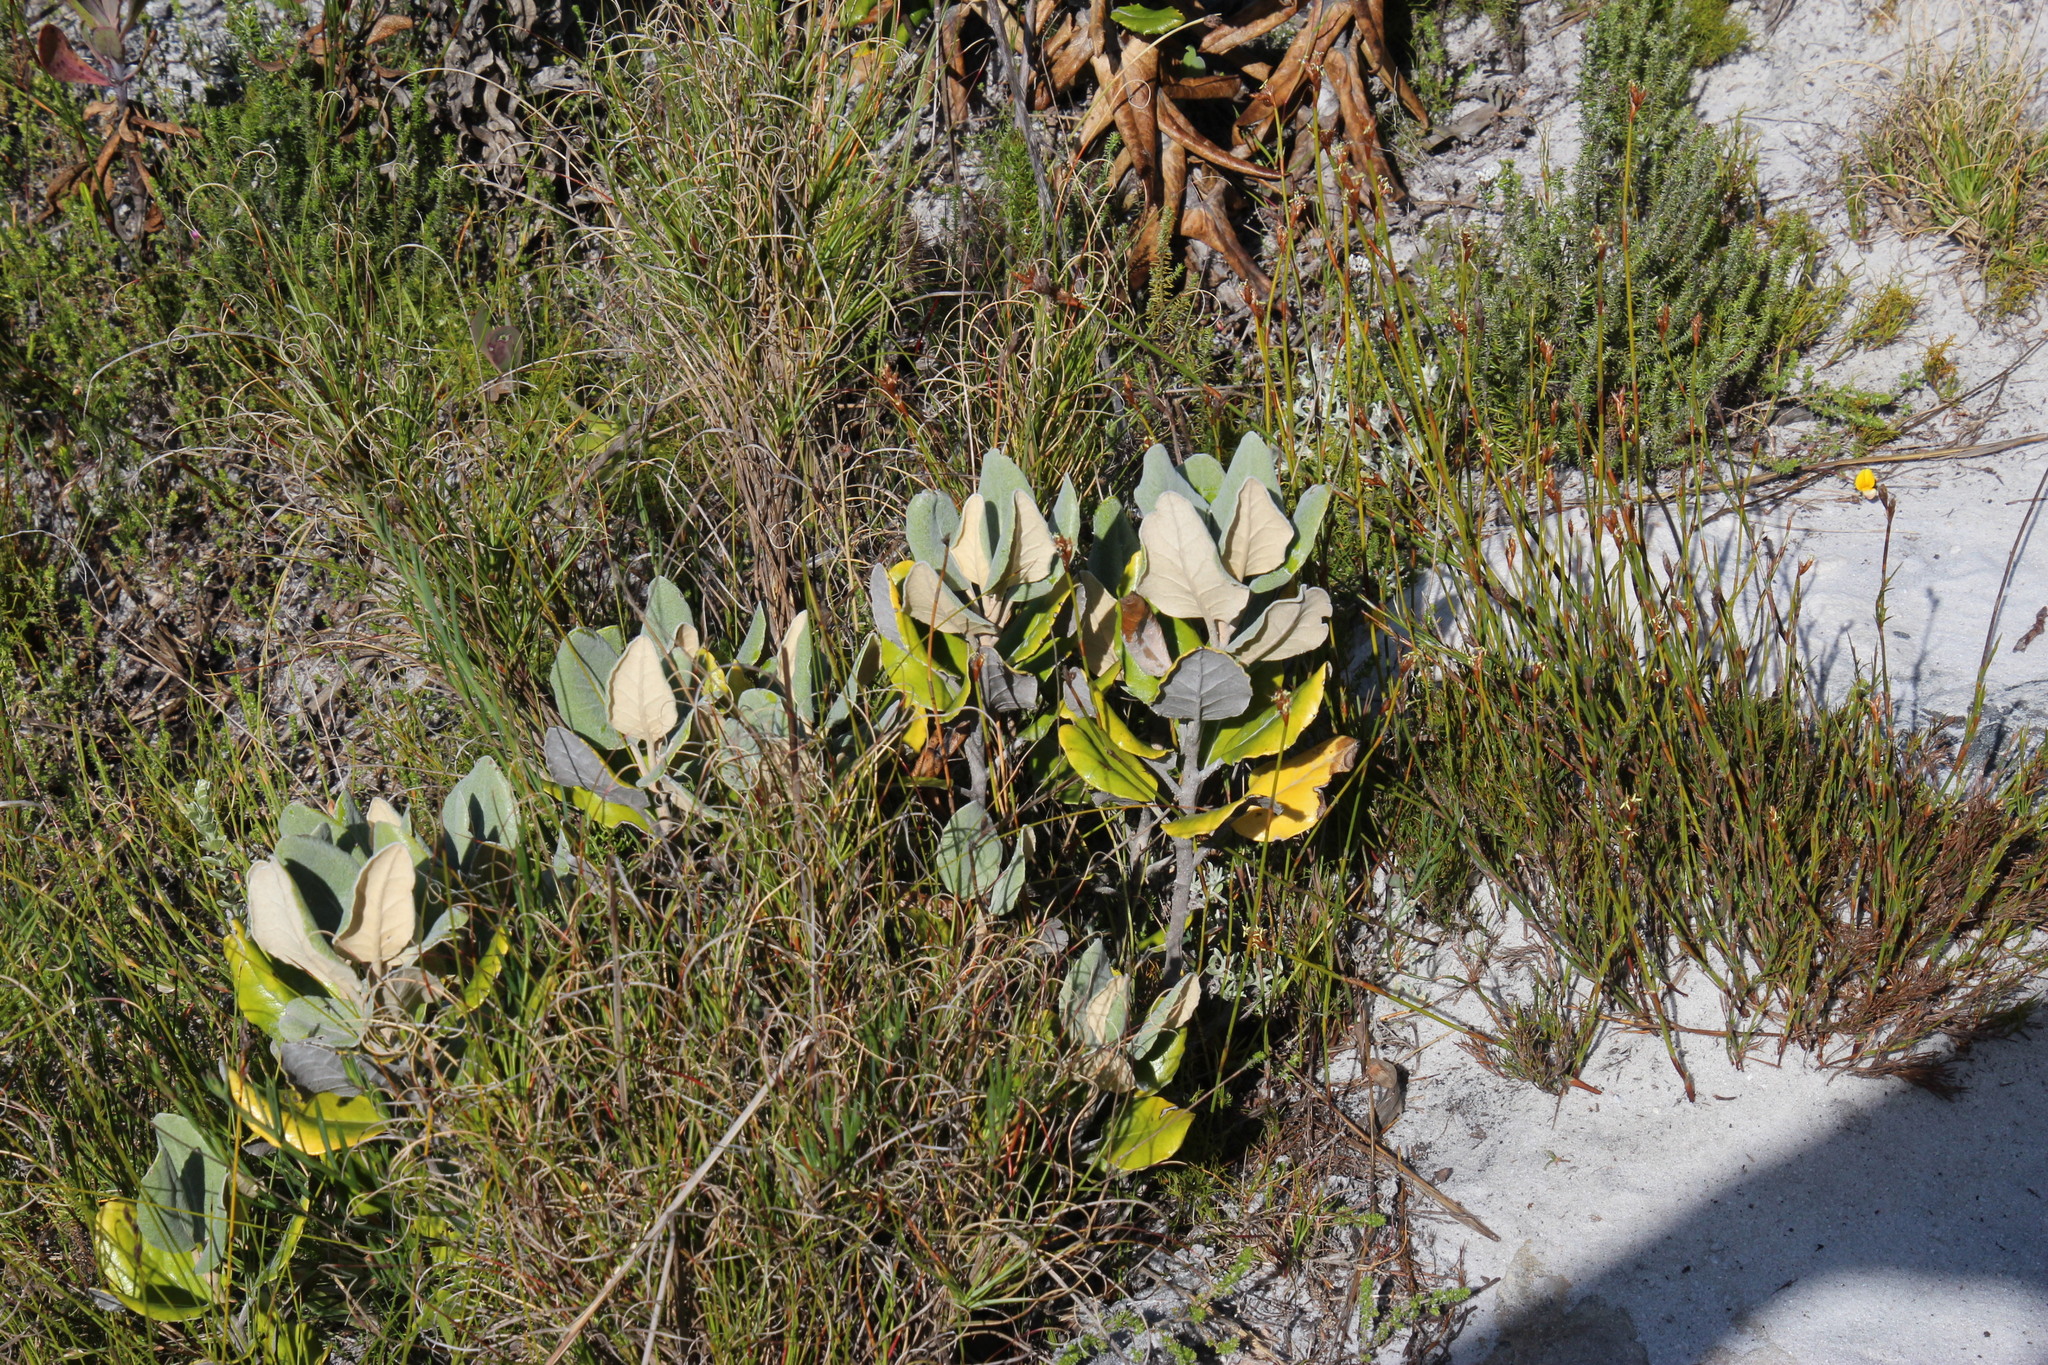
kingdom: Plantae
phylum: Tracheophyta
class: Magnoliopsida
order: Asterales
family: Asteraceae
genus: Capelio
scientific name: Capelio tabularis
